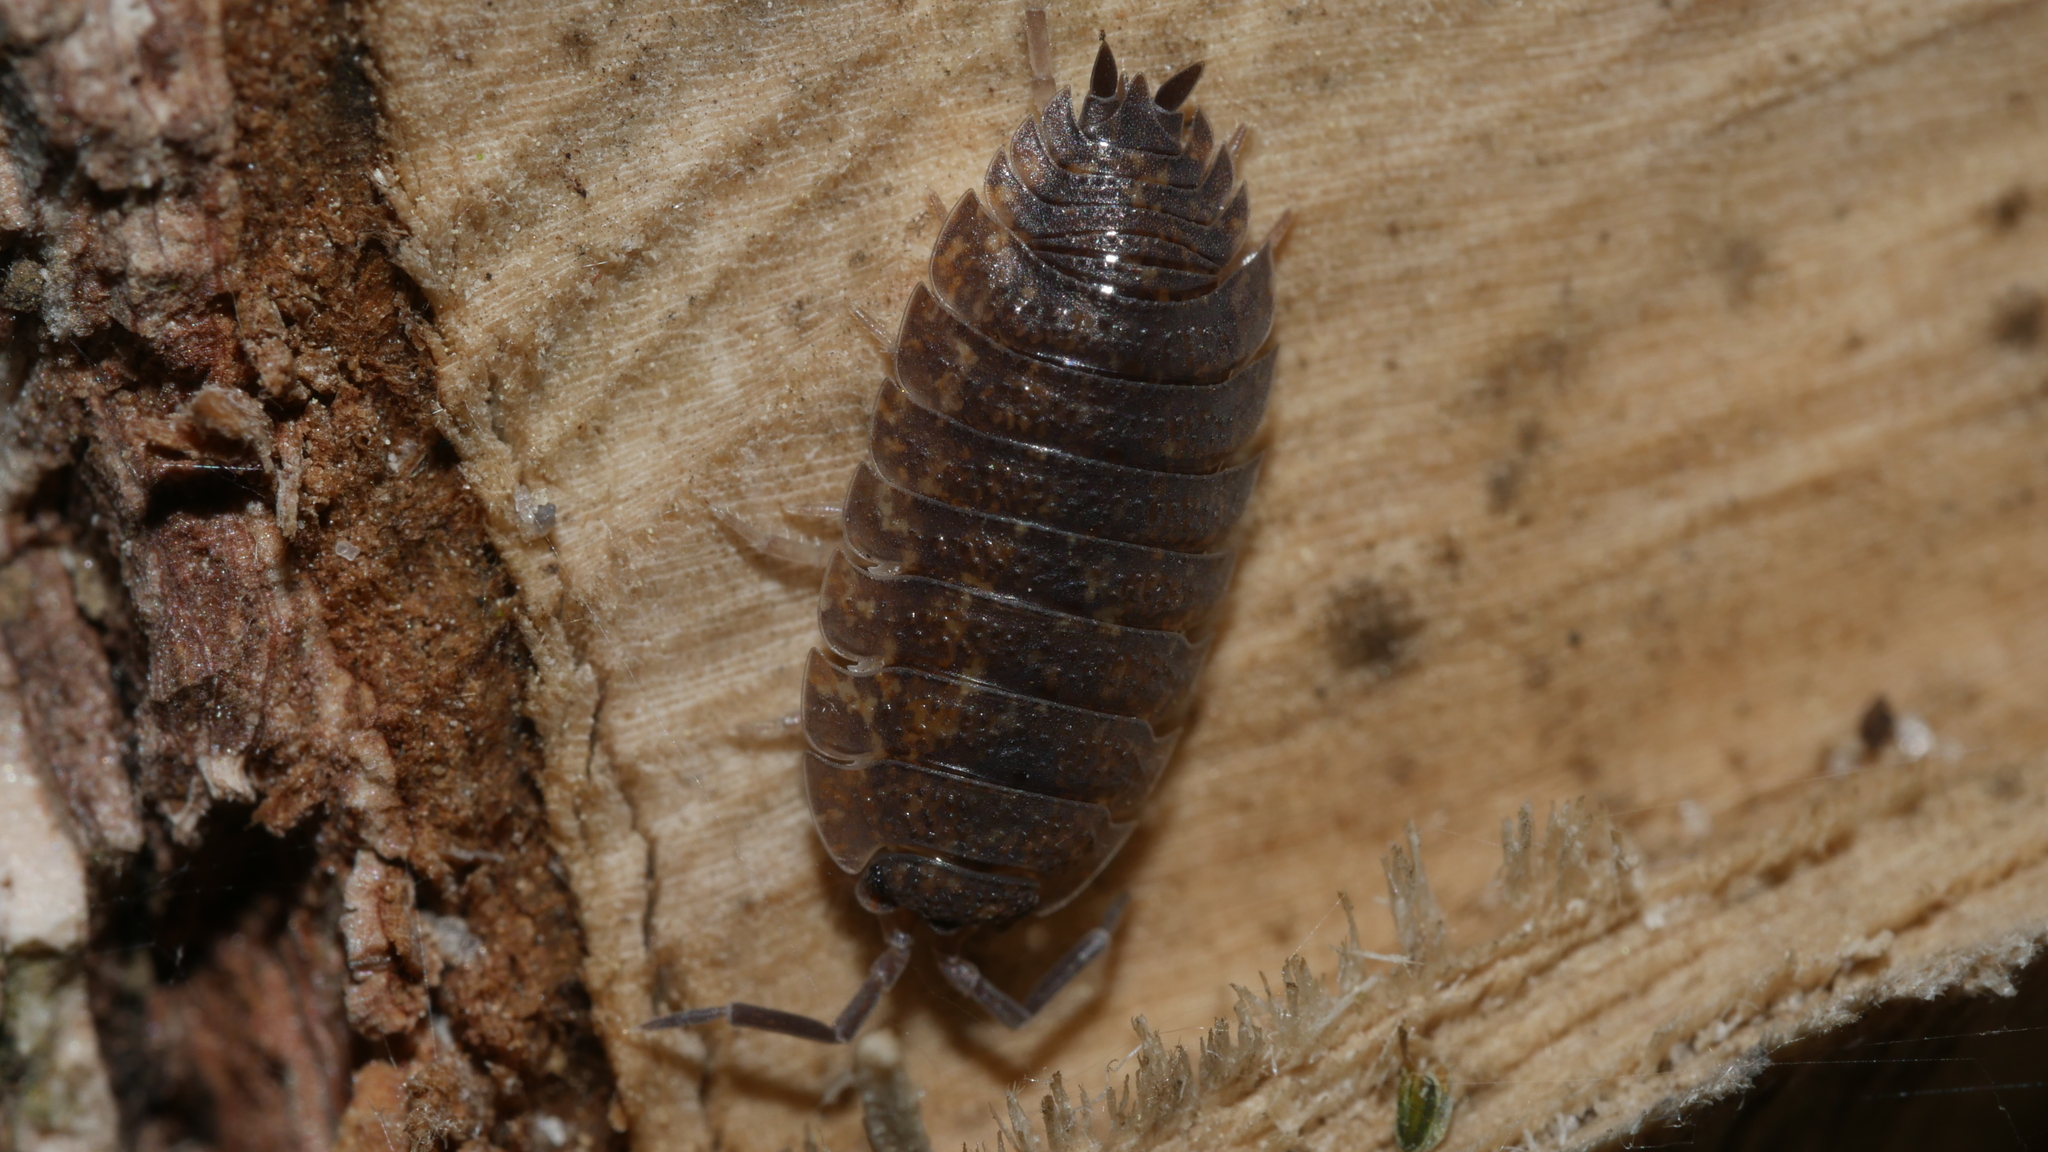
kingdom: Animalia
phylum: Arthropoda
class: Malacostraca
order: Isopoda
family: Porcellionidae
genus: Porcellio
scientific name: Porcellio scaber
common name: Common rough woodlouse
